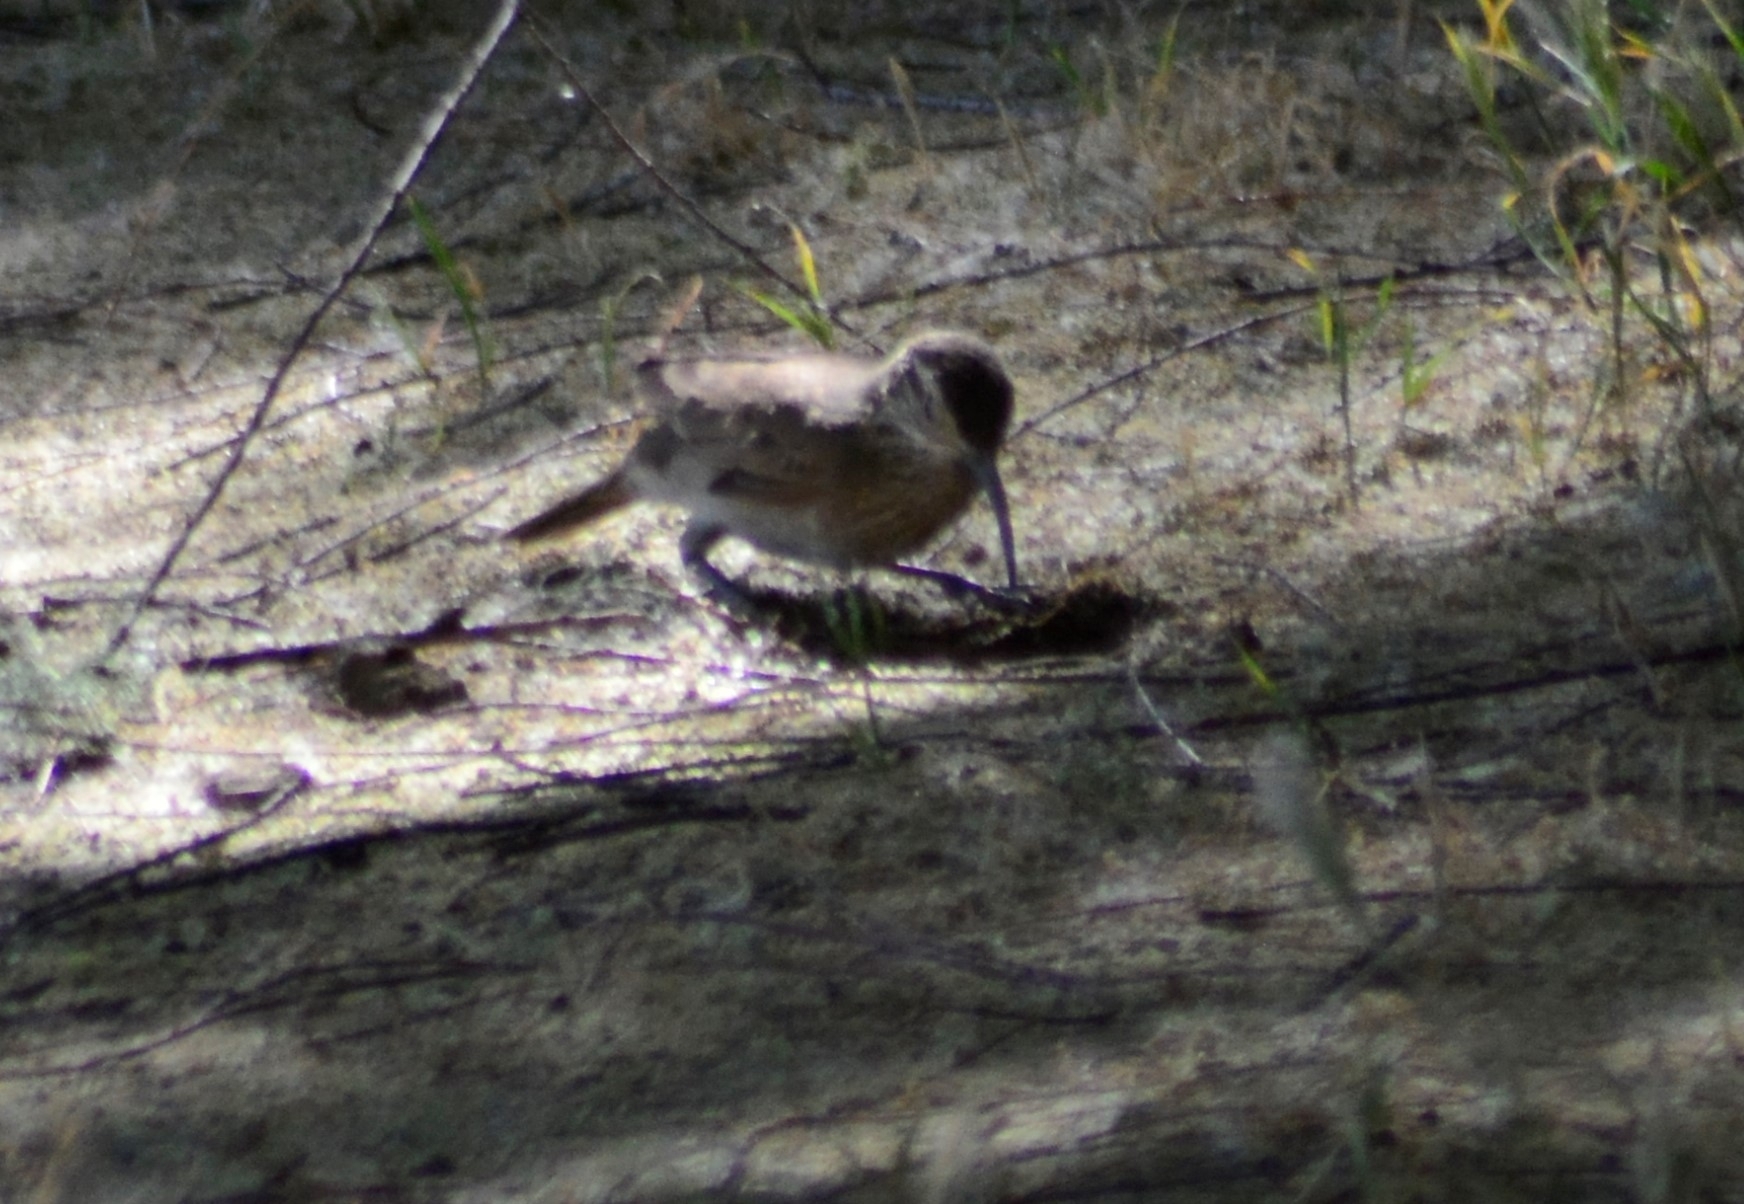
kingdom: Animalia
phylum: Chordata
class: Aves
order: Passeriformes
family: Furnariidae
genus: Upucerthia
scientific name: Upucerthia dumetaria
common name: Scale-throated earthcreeper
